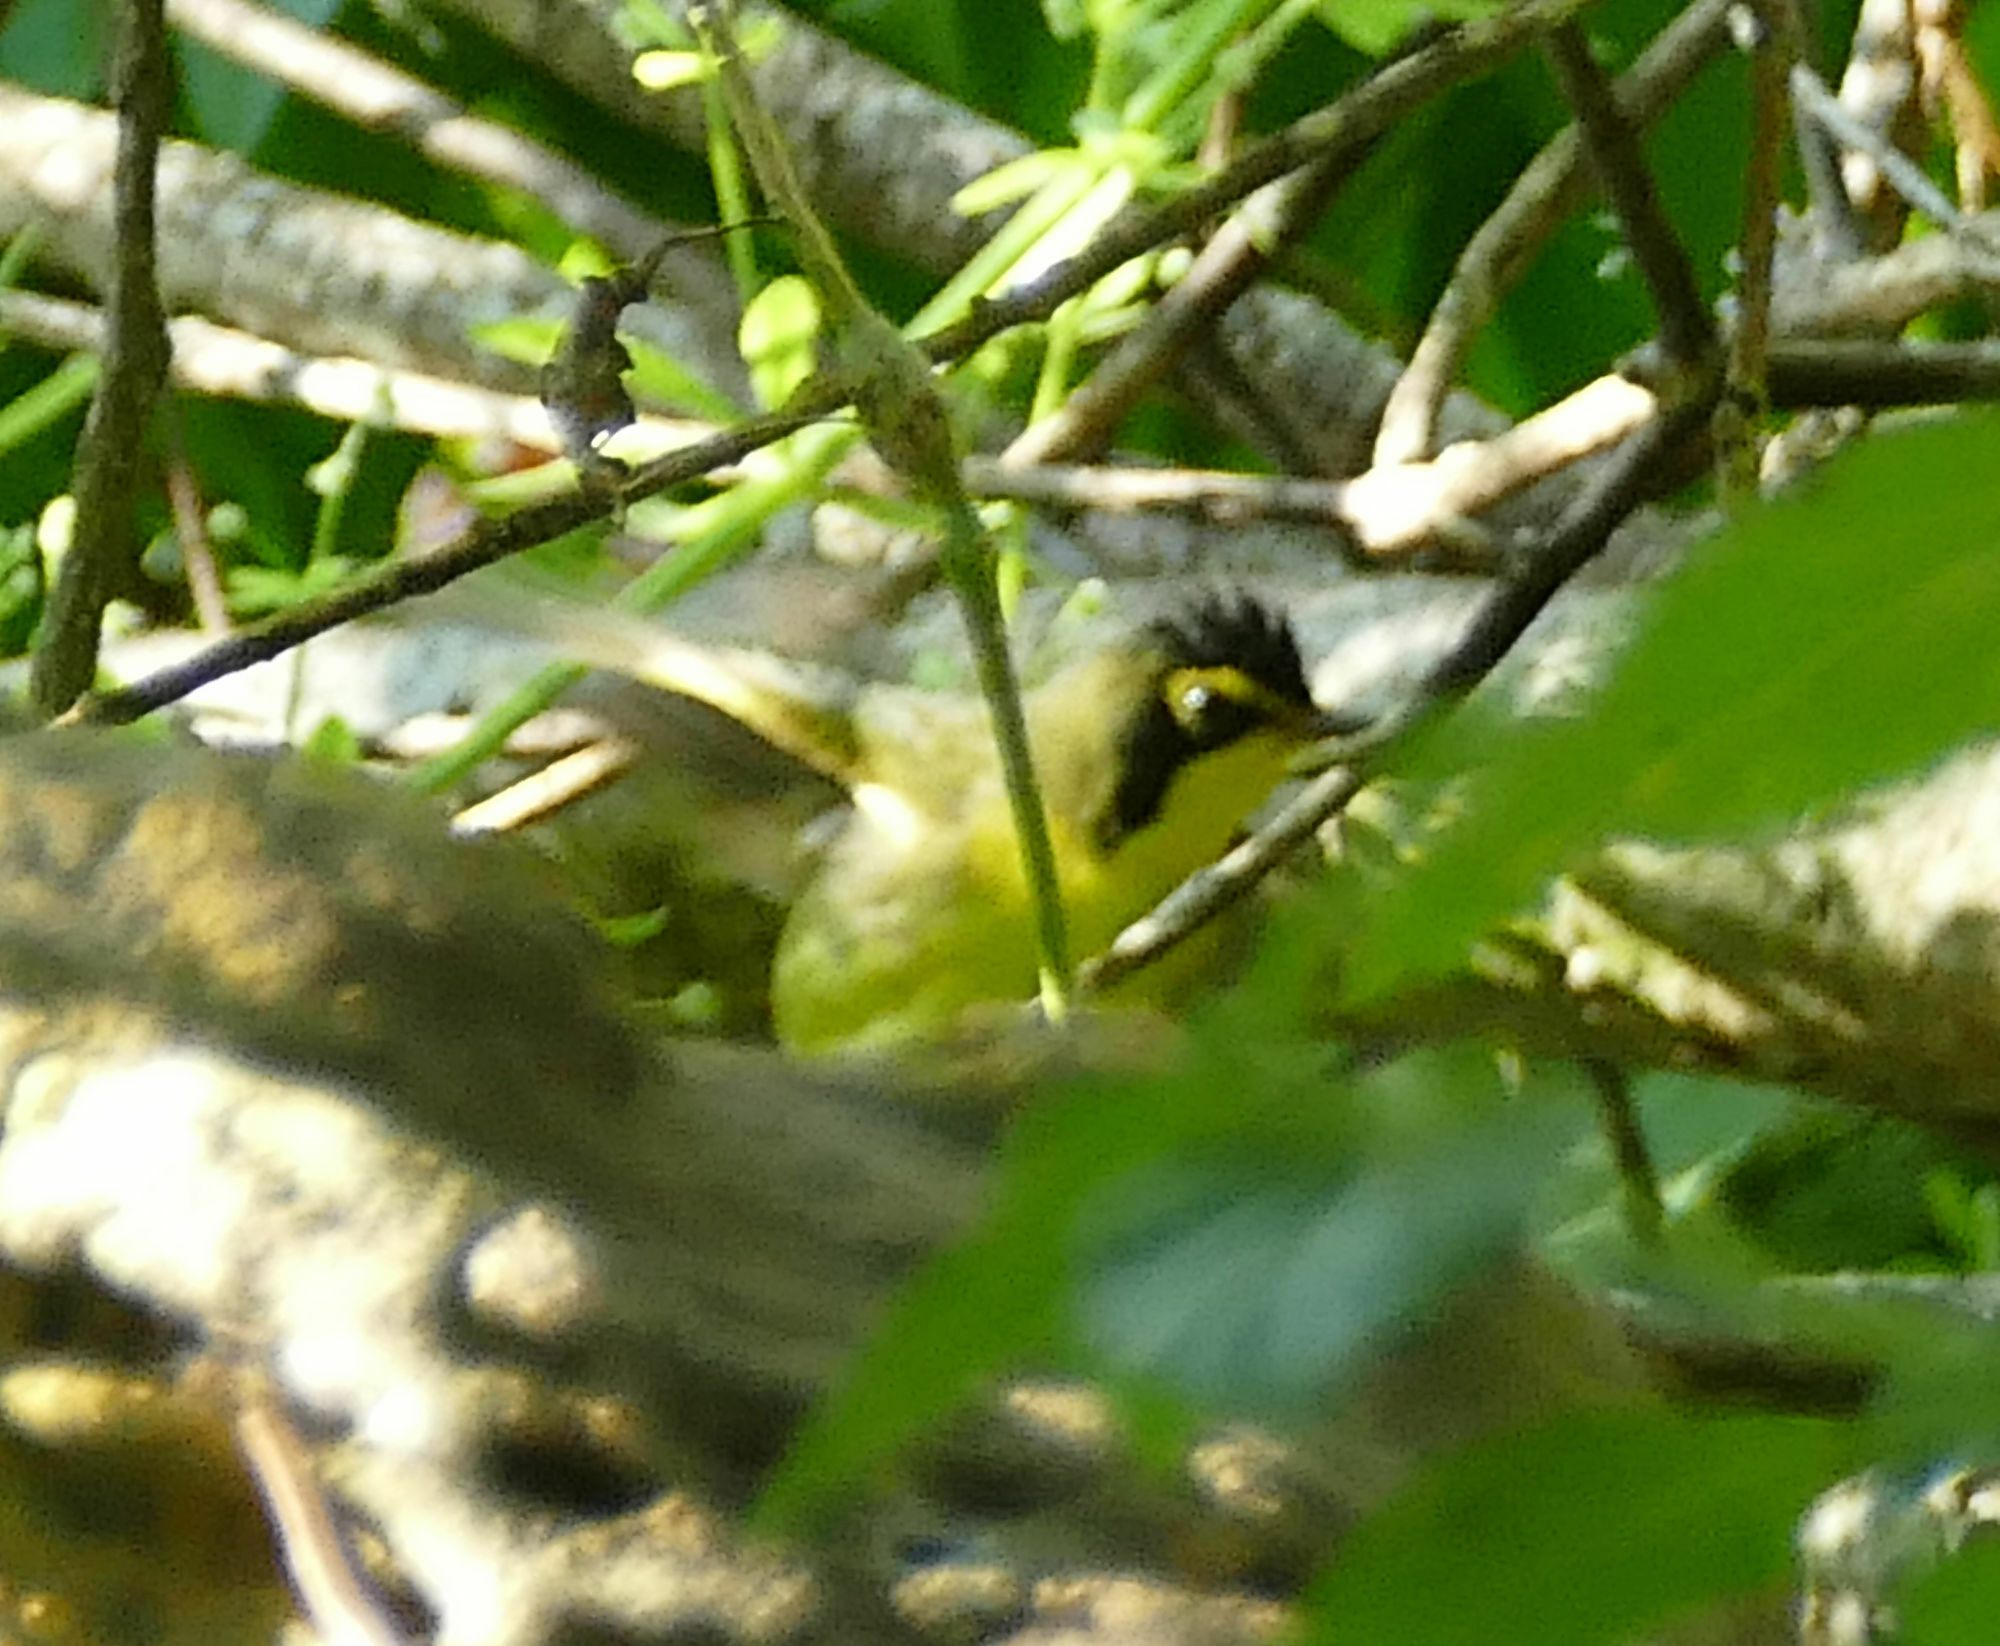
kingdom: Animalia
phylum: Chordata
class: Aves
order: Passeriformes
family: Parulidae
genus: Geothlypis
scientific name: Geothlypis formosa
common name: Kentucky warbler
